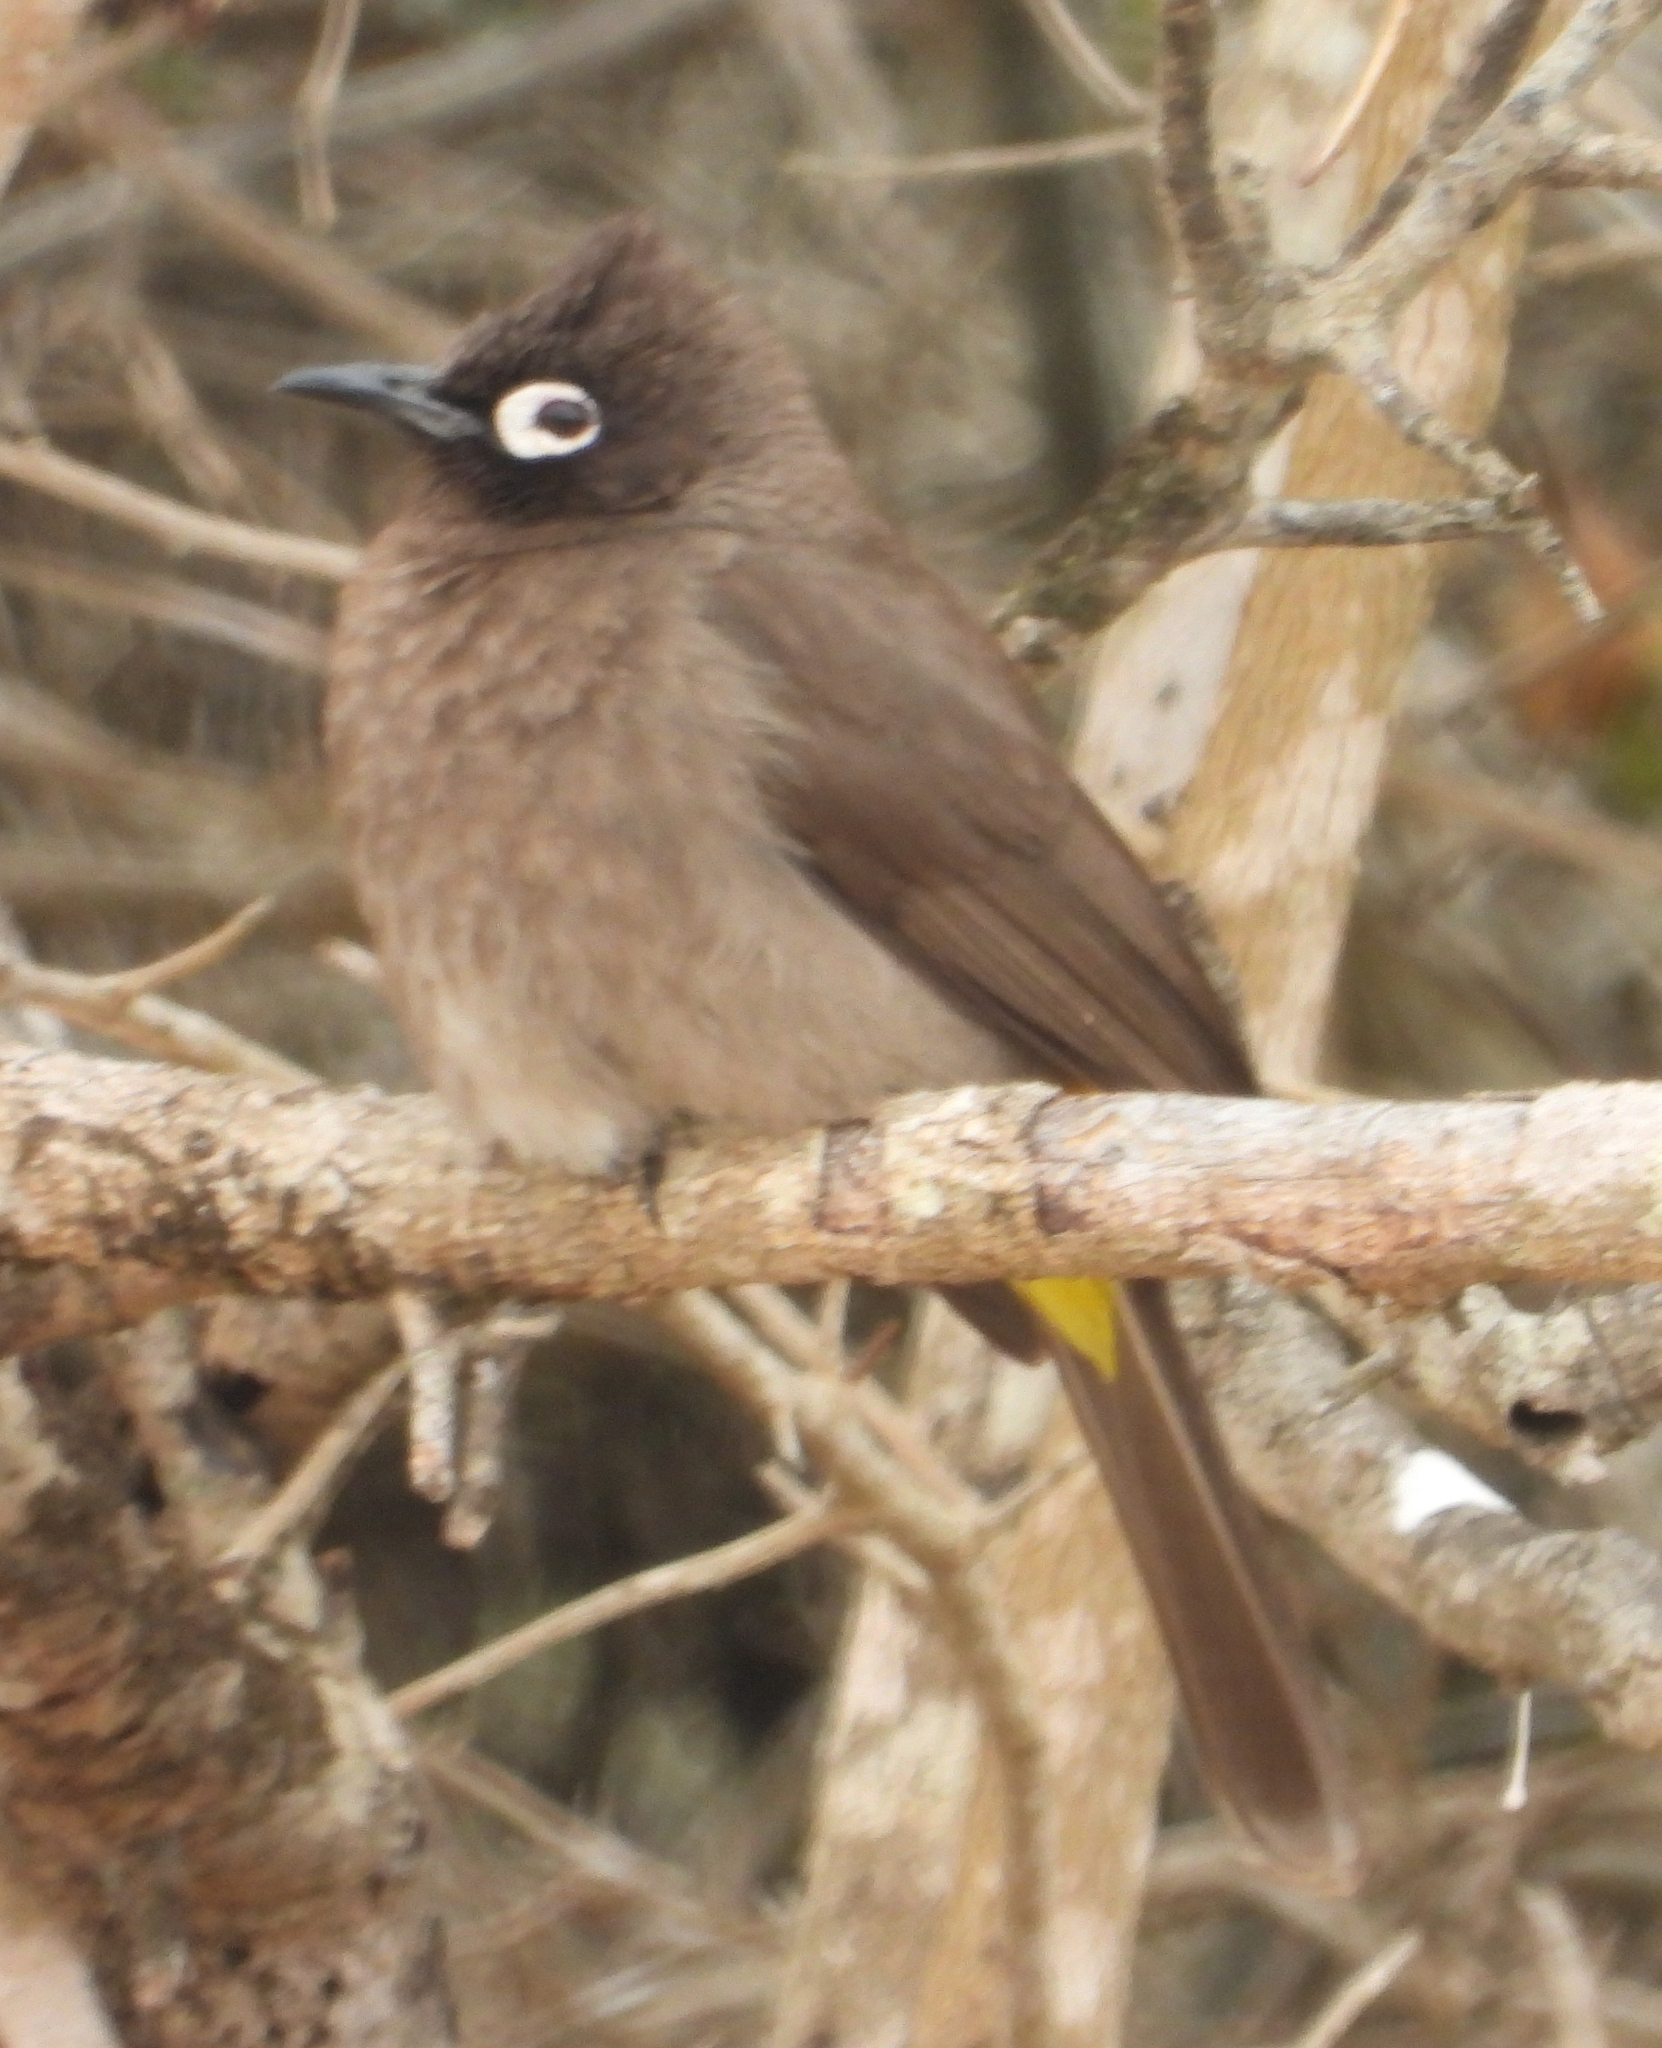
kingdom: Animalia
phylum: Chordata
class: Aves
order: Passeriformes
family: Pycnonotidae
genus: Pycnonotus
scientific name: Pycnonotus capensis
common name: Cape bulbul
